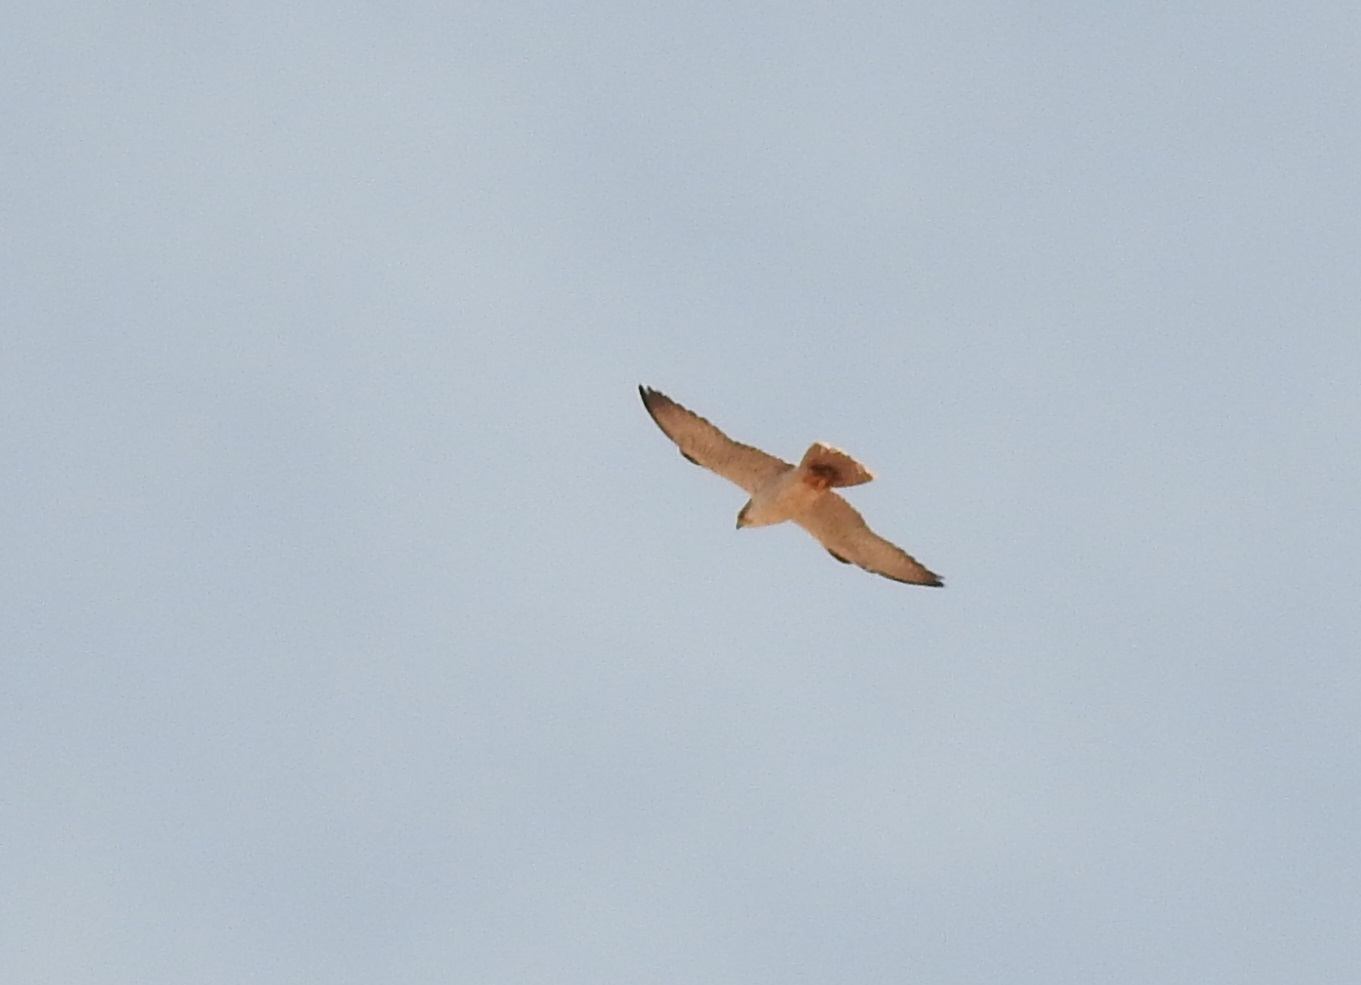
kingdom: Animalia
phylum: Chordata
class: Aves
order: Falconiformes
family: Falconidae
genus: Falco
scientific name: Falco biarmicus
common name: Lanner falcon
